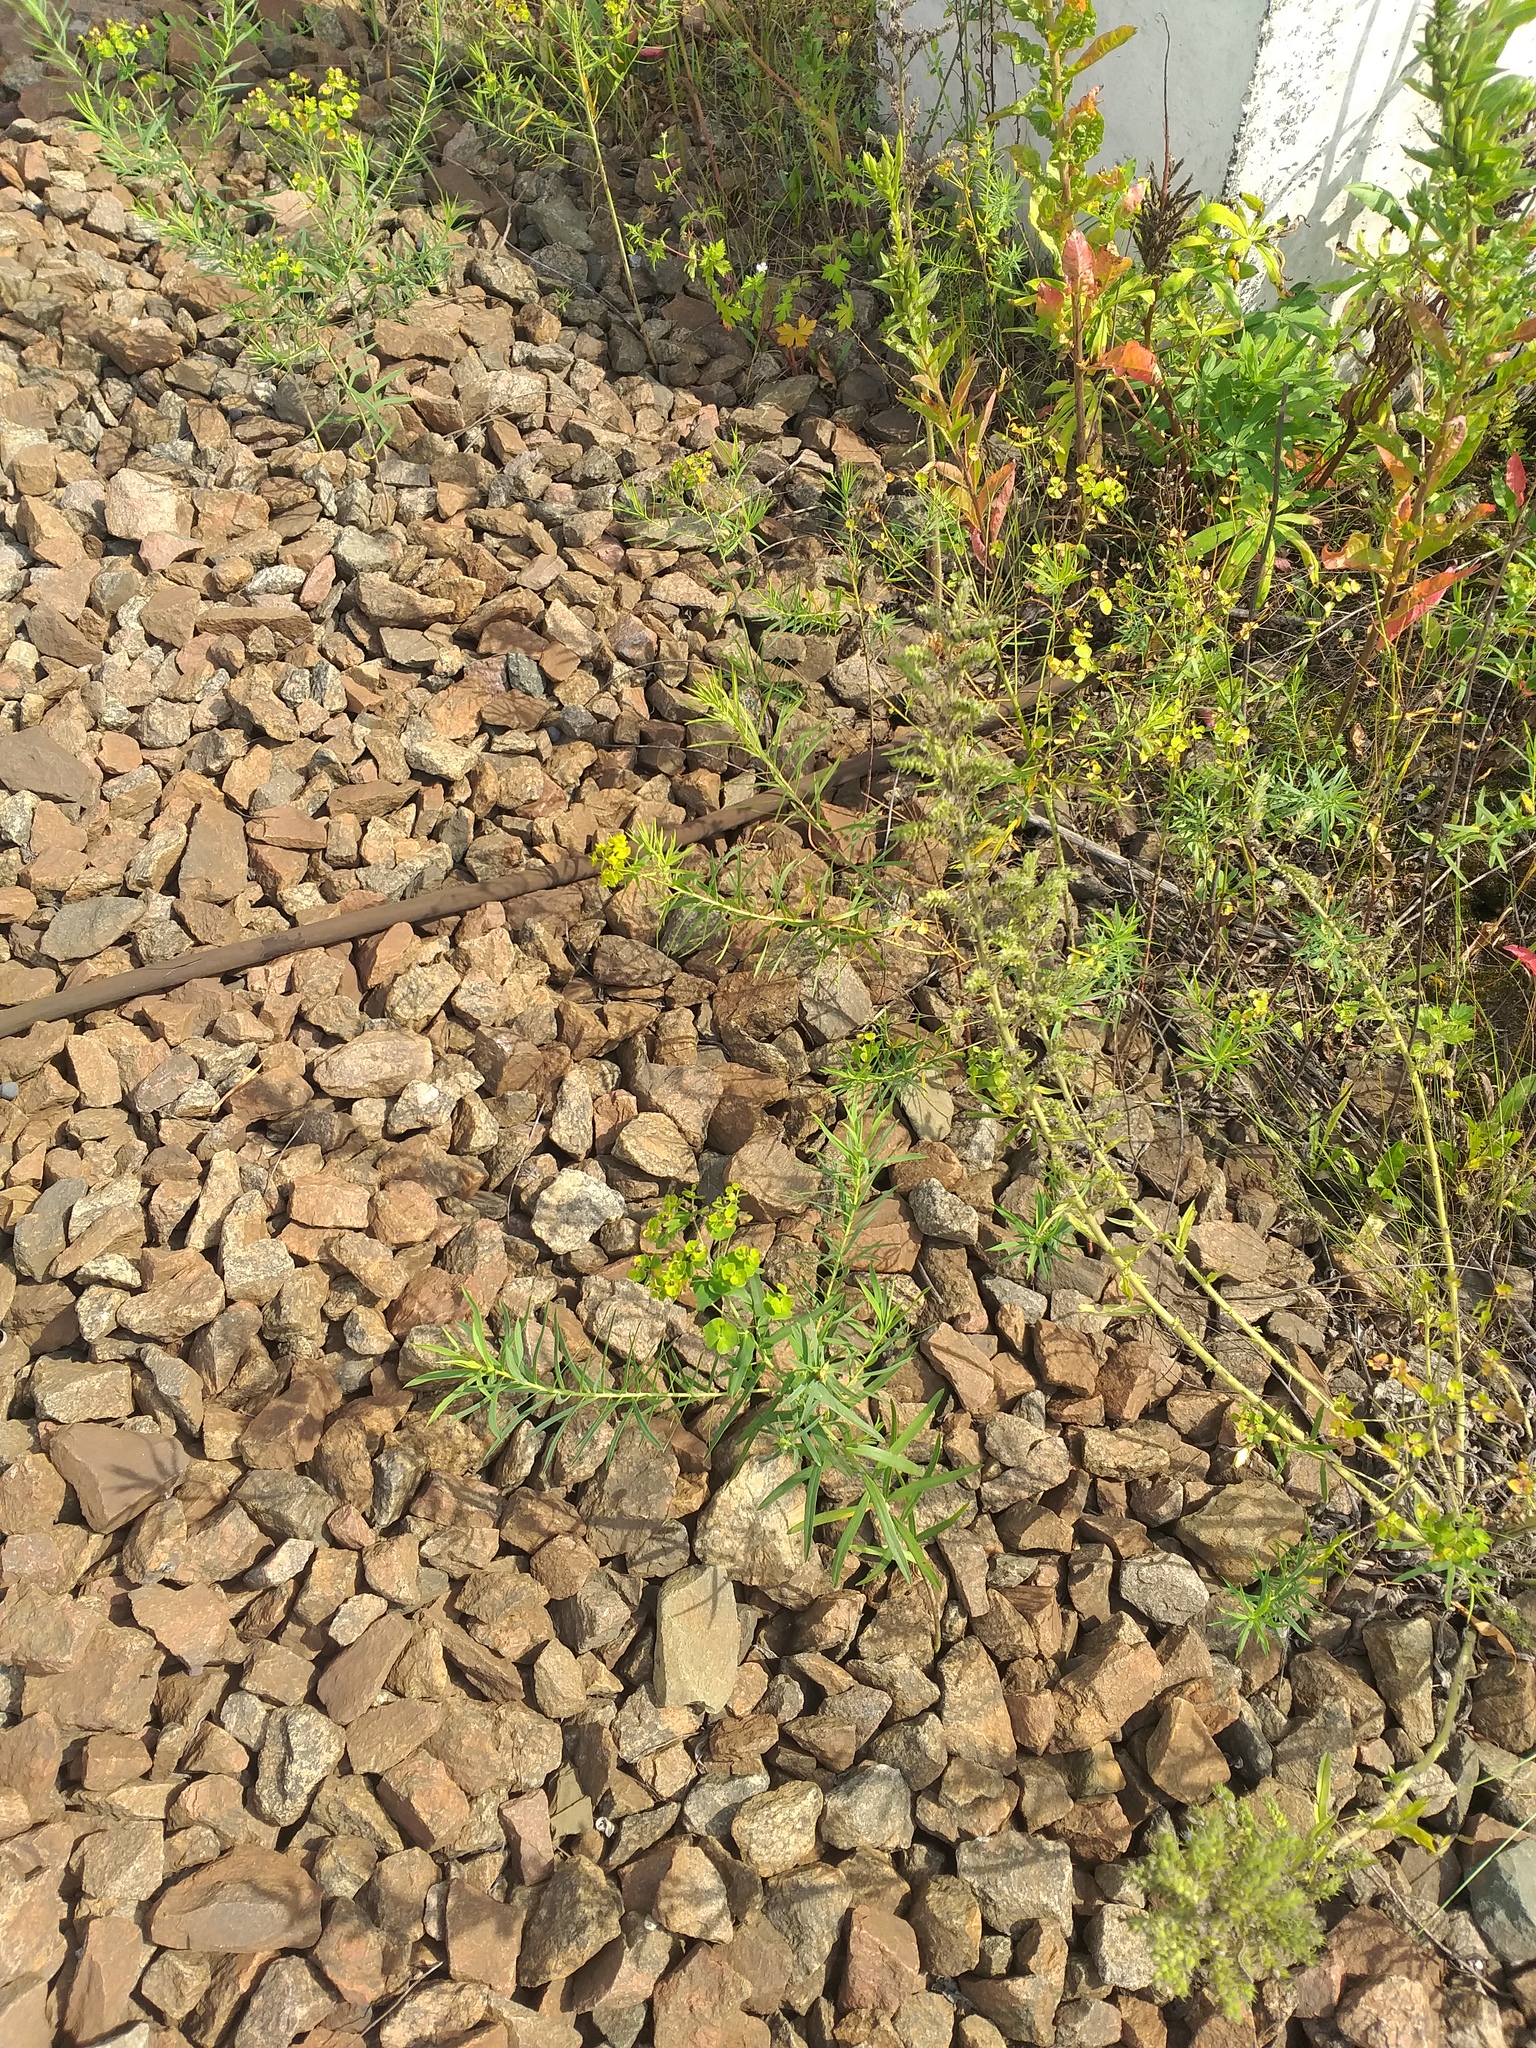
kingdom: Plantae
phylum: Tracheophyta
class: Magnoliopsida
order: Malpighiales
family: Euphorbiaceae
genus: Euphorbia
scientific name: Euphorbia virgata
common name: Leafy spurge
